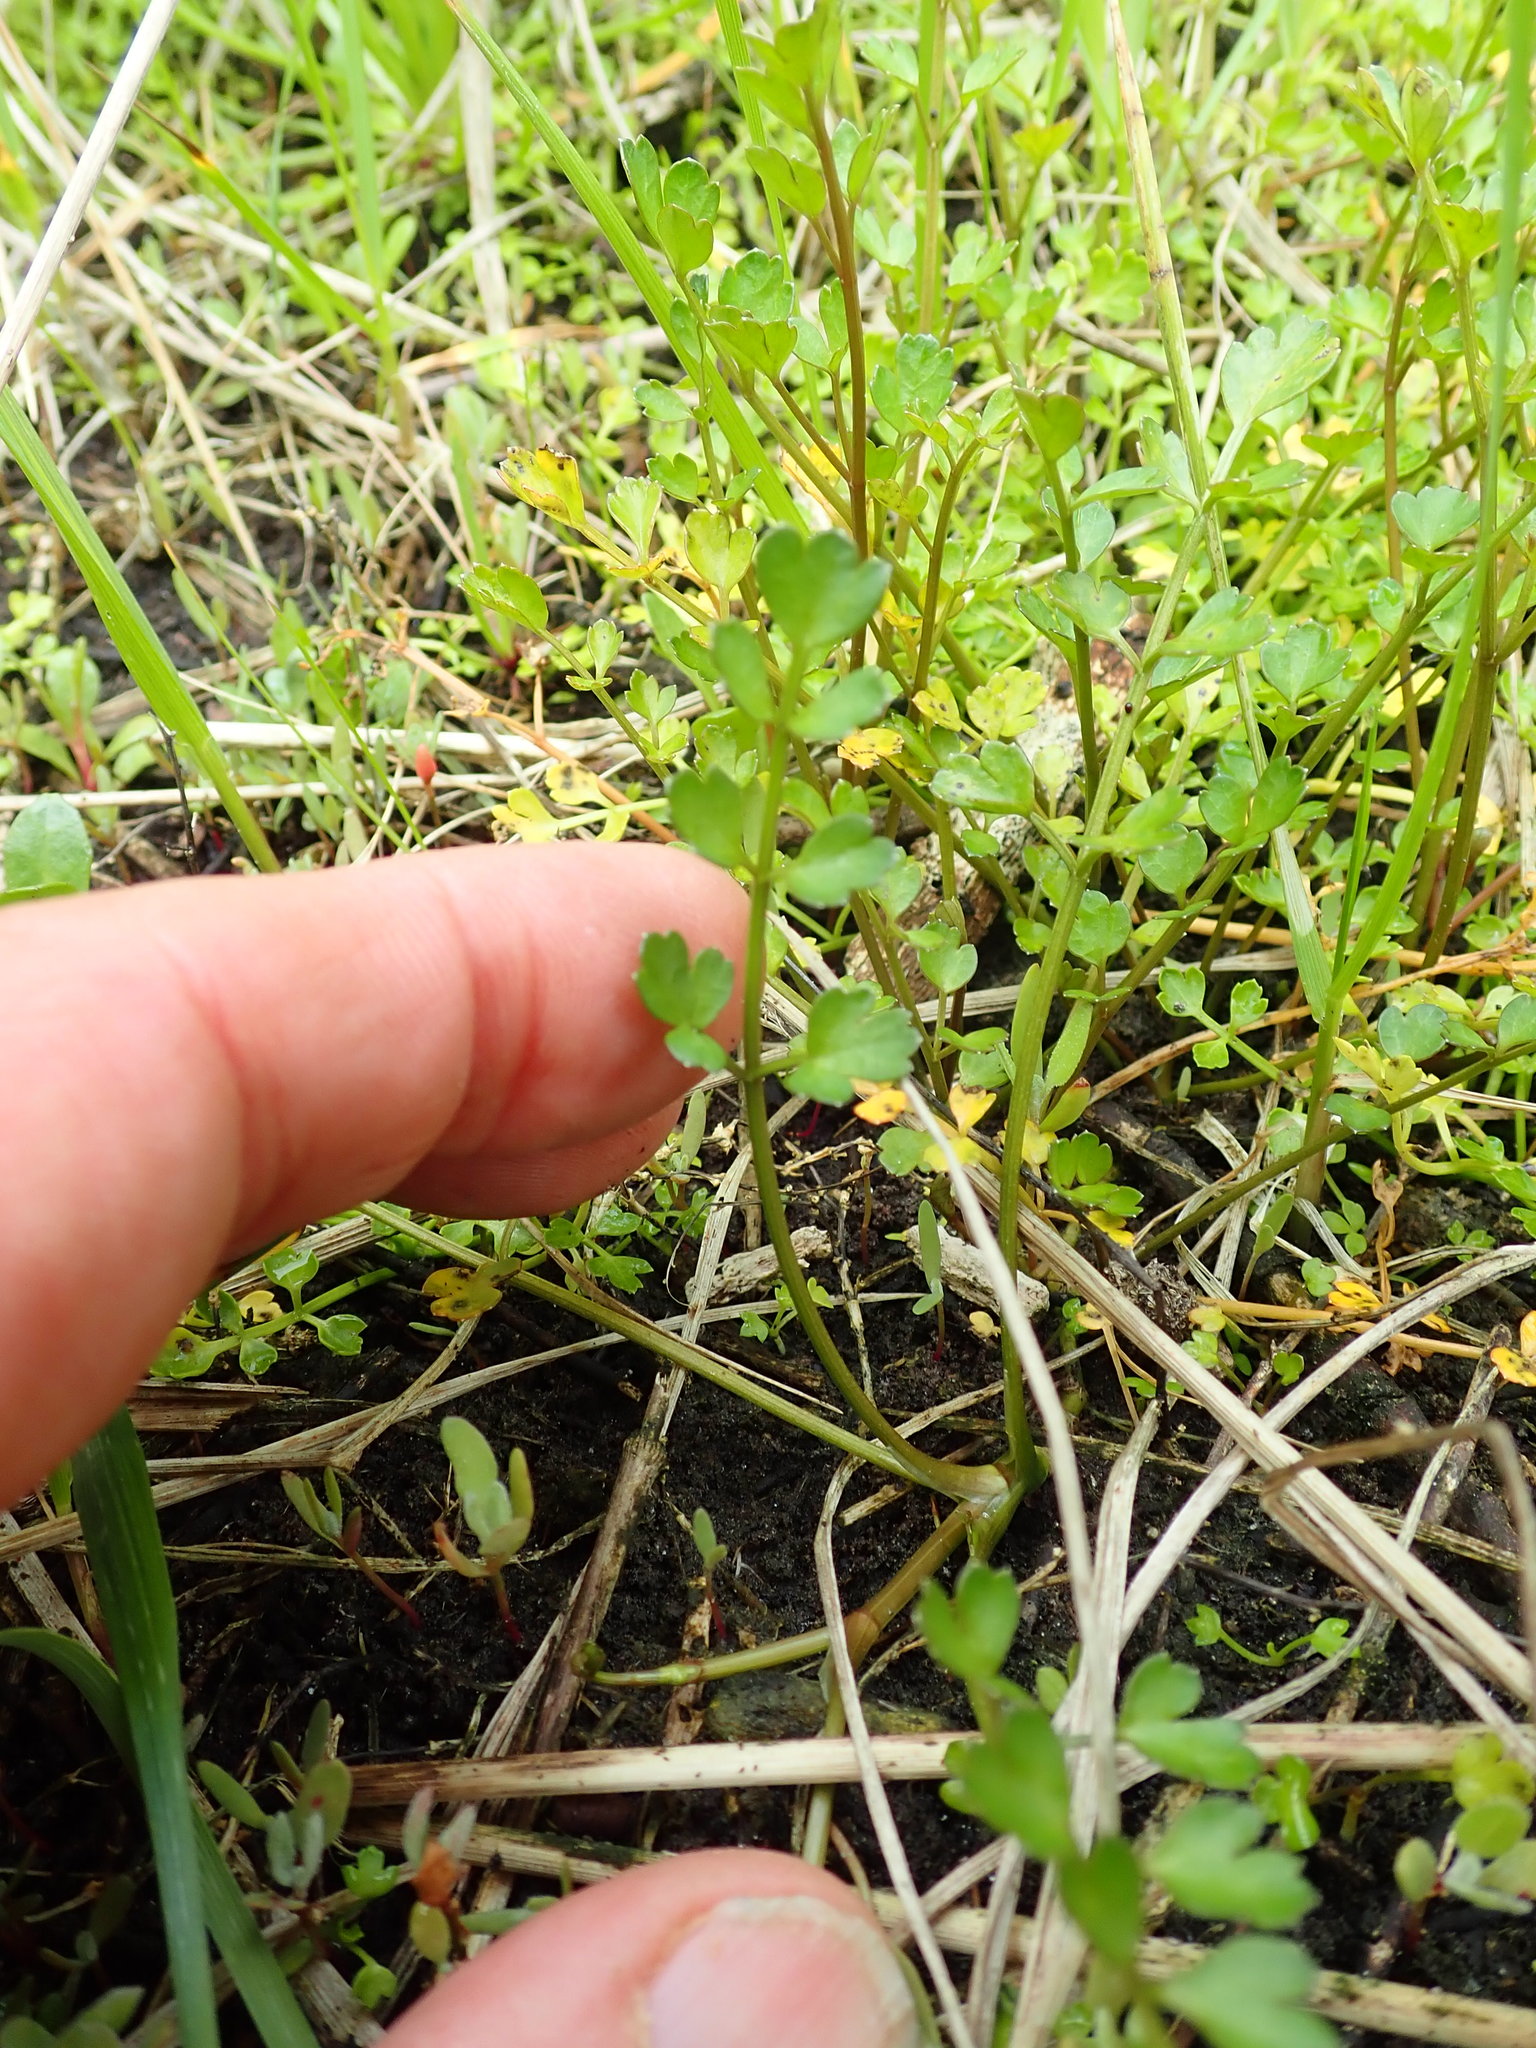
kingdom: Plantae
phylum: Tracheophyta
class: Magnoliopsida
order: Apiales
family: Apiaceae
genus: Apium
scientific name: Apium prostratum
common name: Prostrate marshwort
